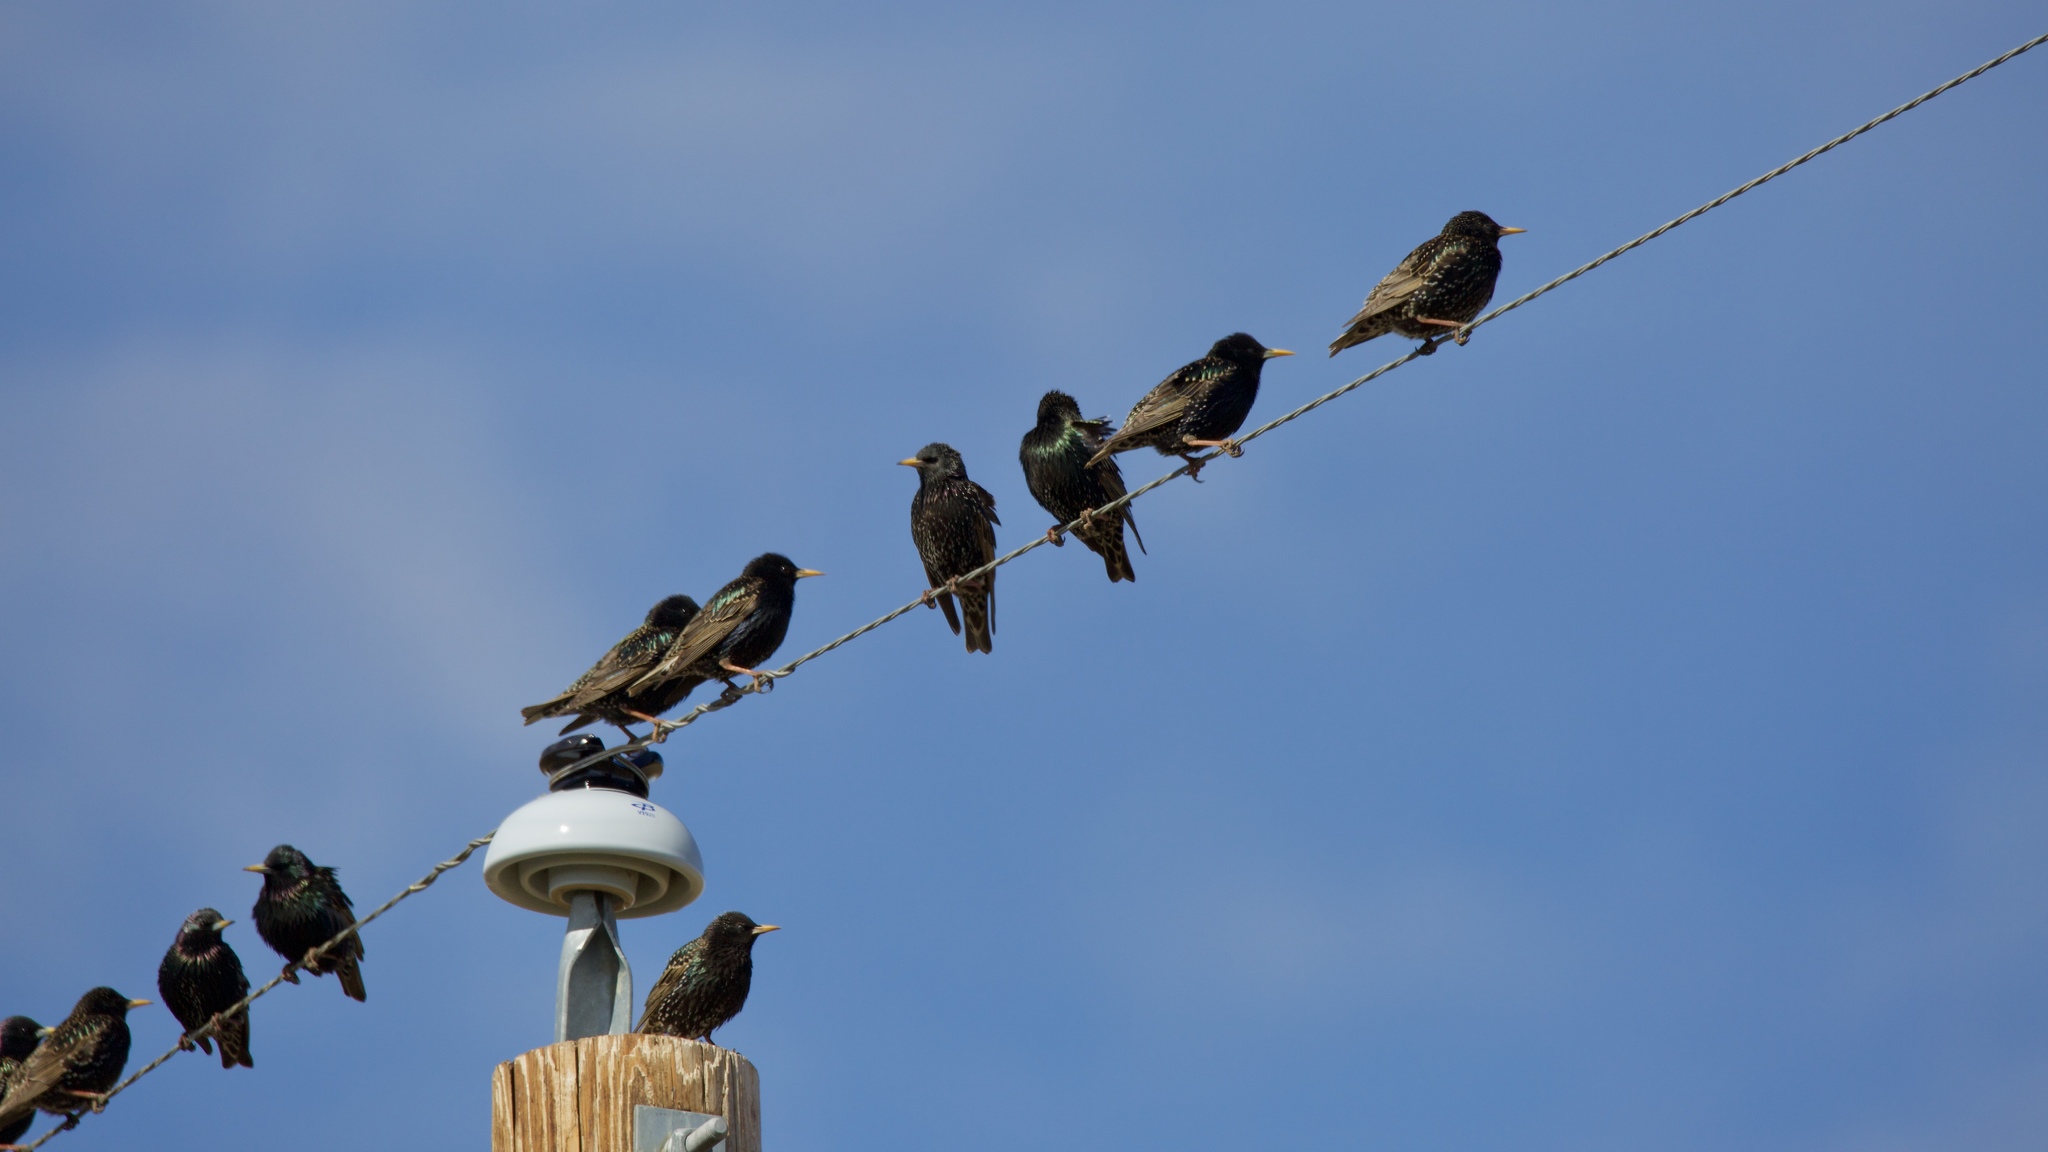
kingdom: Animalia
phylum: Chordata
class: Aves
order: Passeriformes
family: Sturnidae
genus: Sturnus
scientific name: Sturnus vulgaris
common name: Common starling
